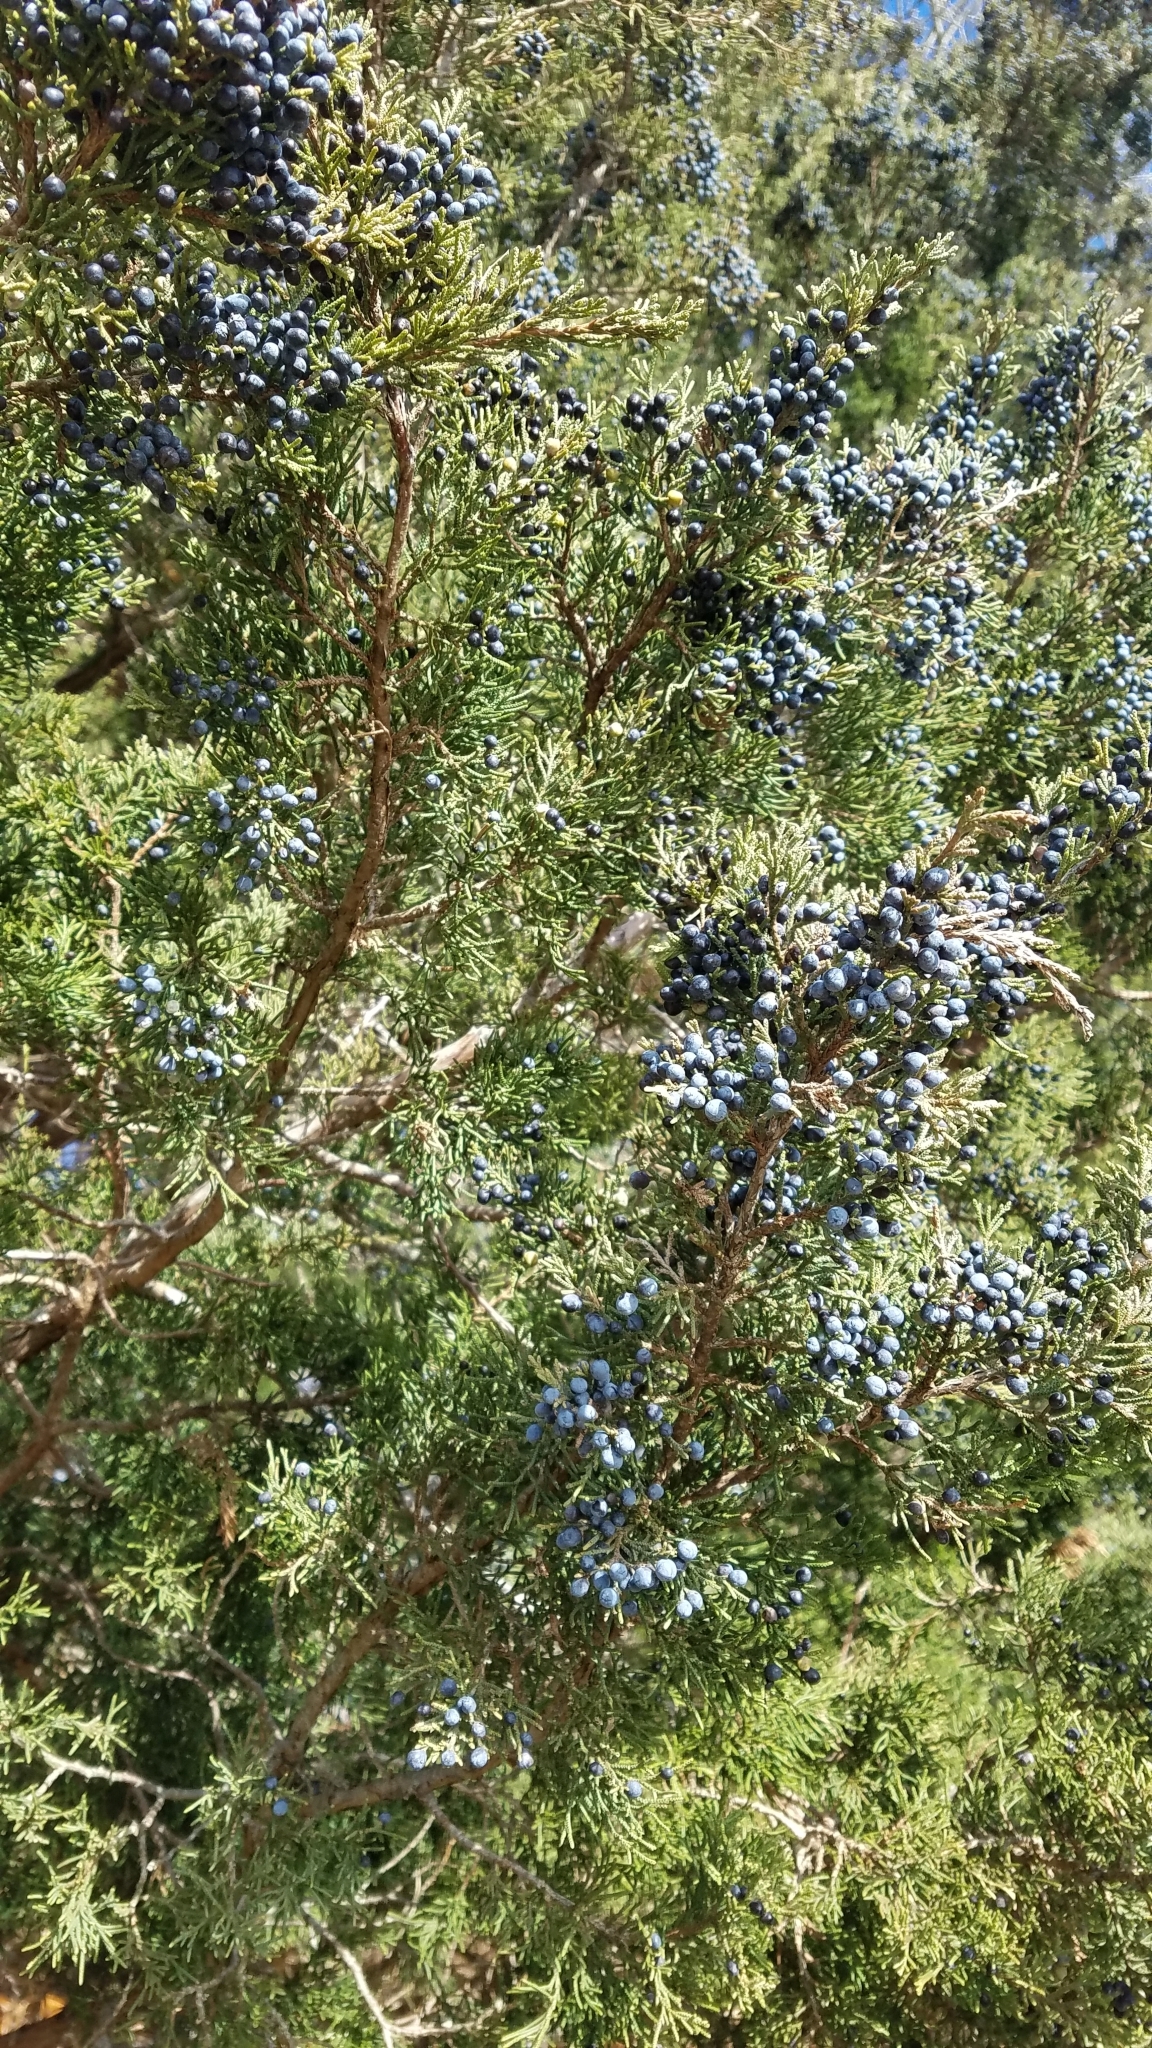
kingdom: Plantae
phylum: Tracheophyta
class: Pinopsida
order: Pinales
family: Cupressaceae
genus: Juniperus
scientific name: Juniperus virginiana
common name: Red juniper
